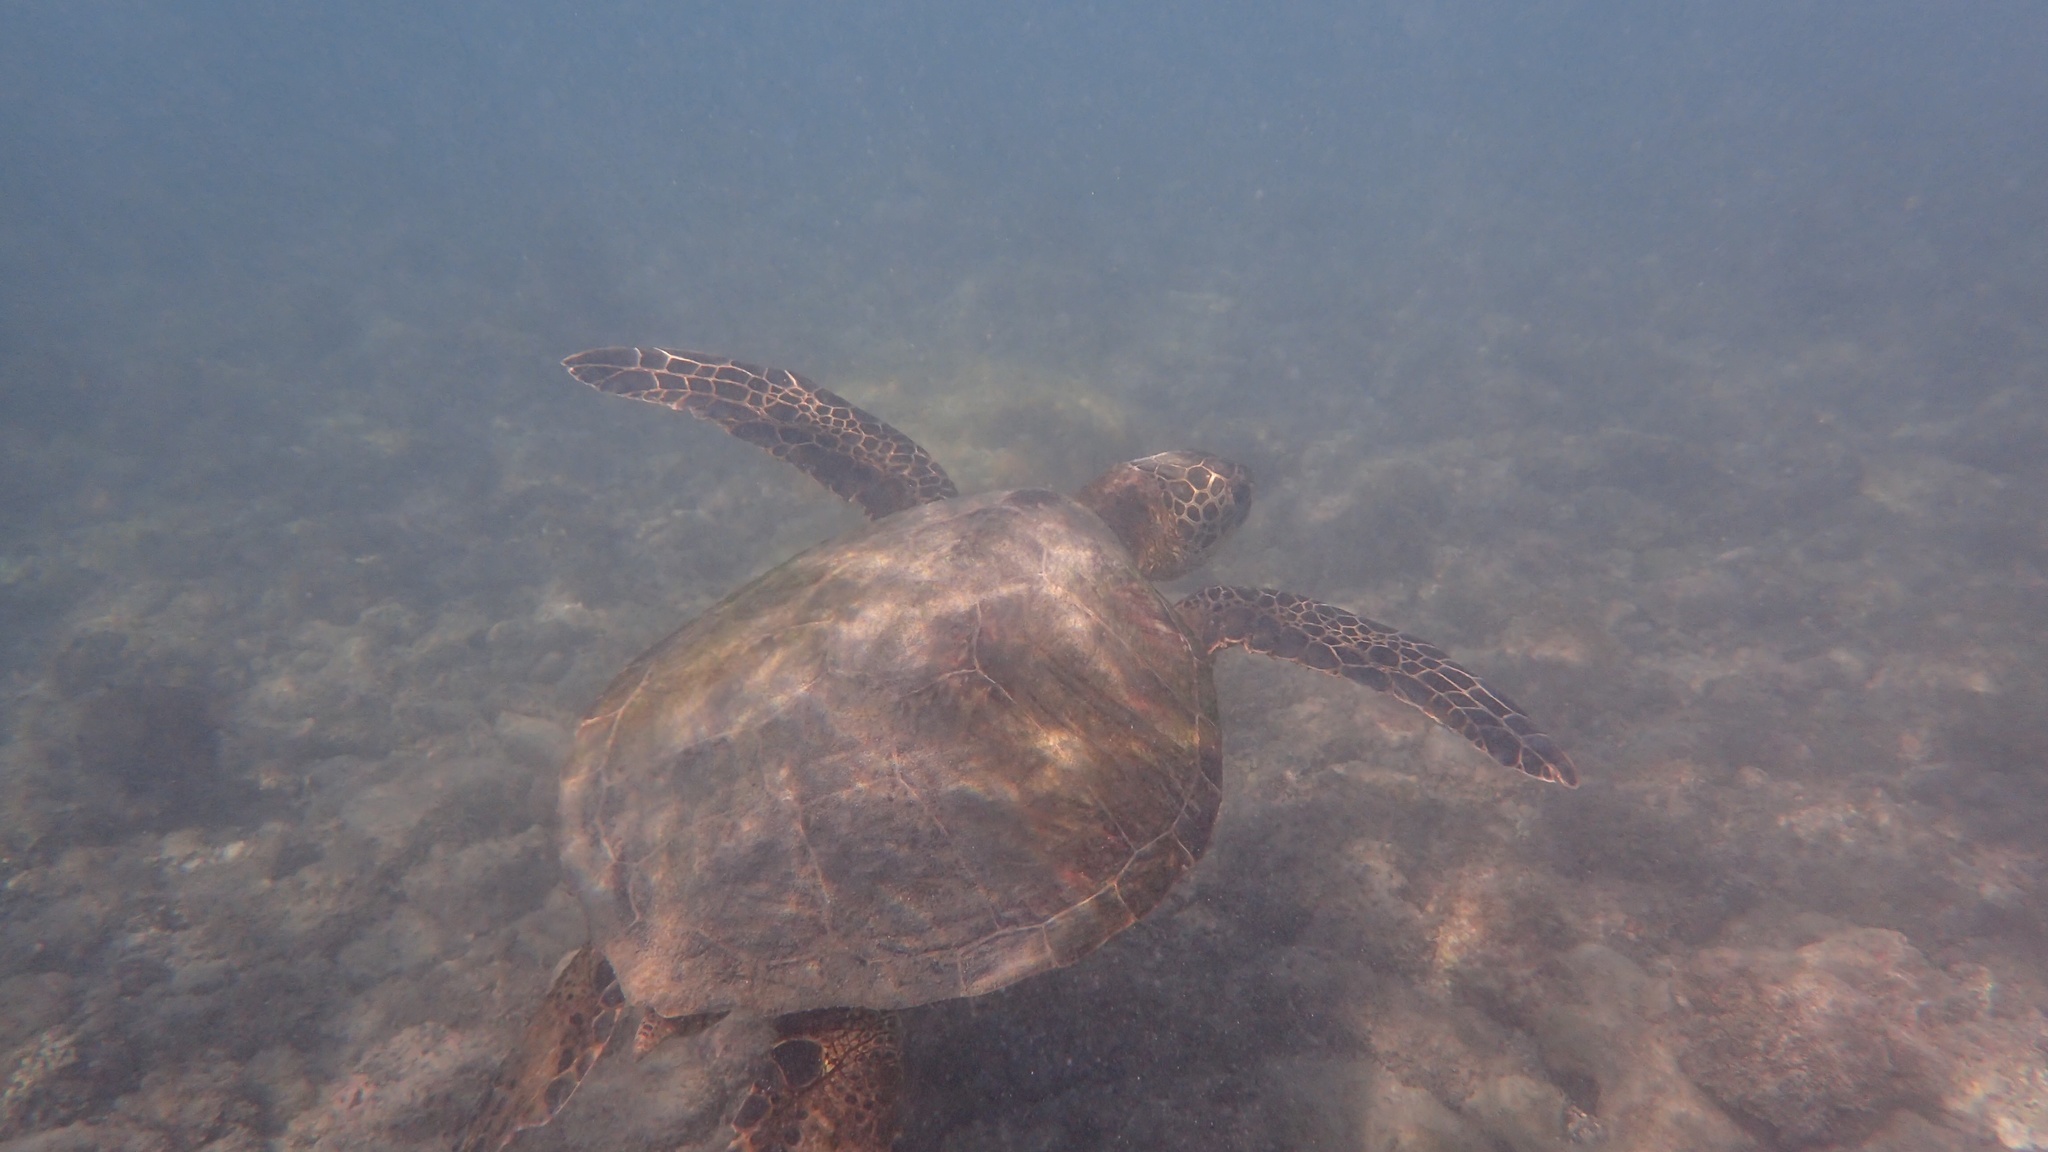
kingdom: Animalia
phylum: Chordata
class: Testudines
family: Cheloniidae
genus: Chelonia
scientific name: Chelonia mydas
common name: Green turtle
